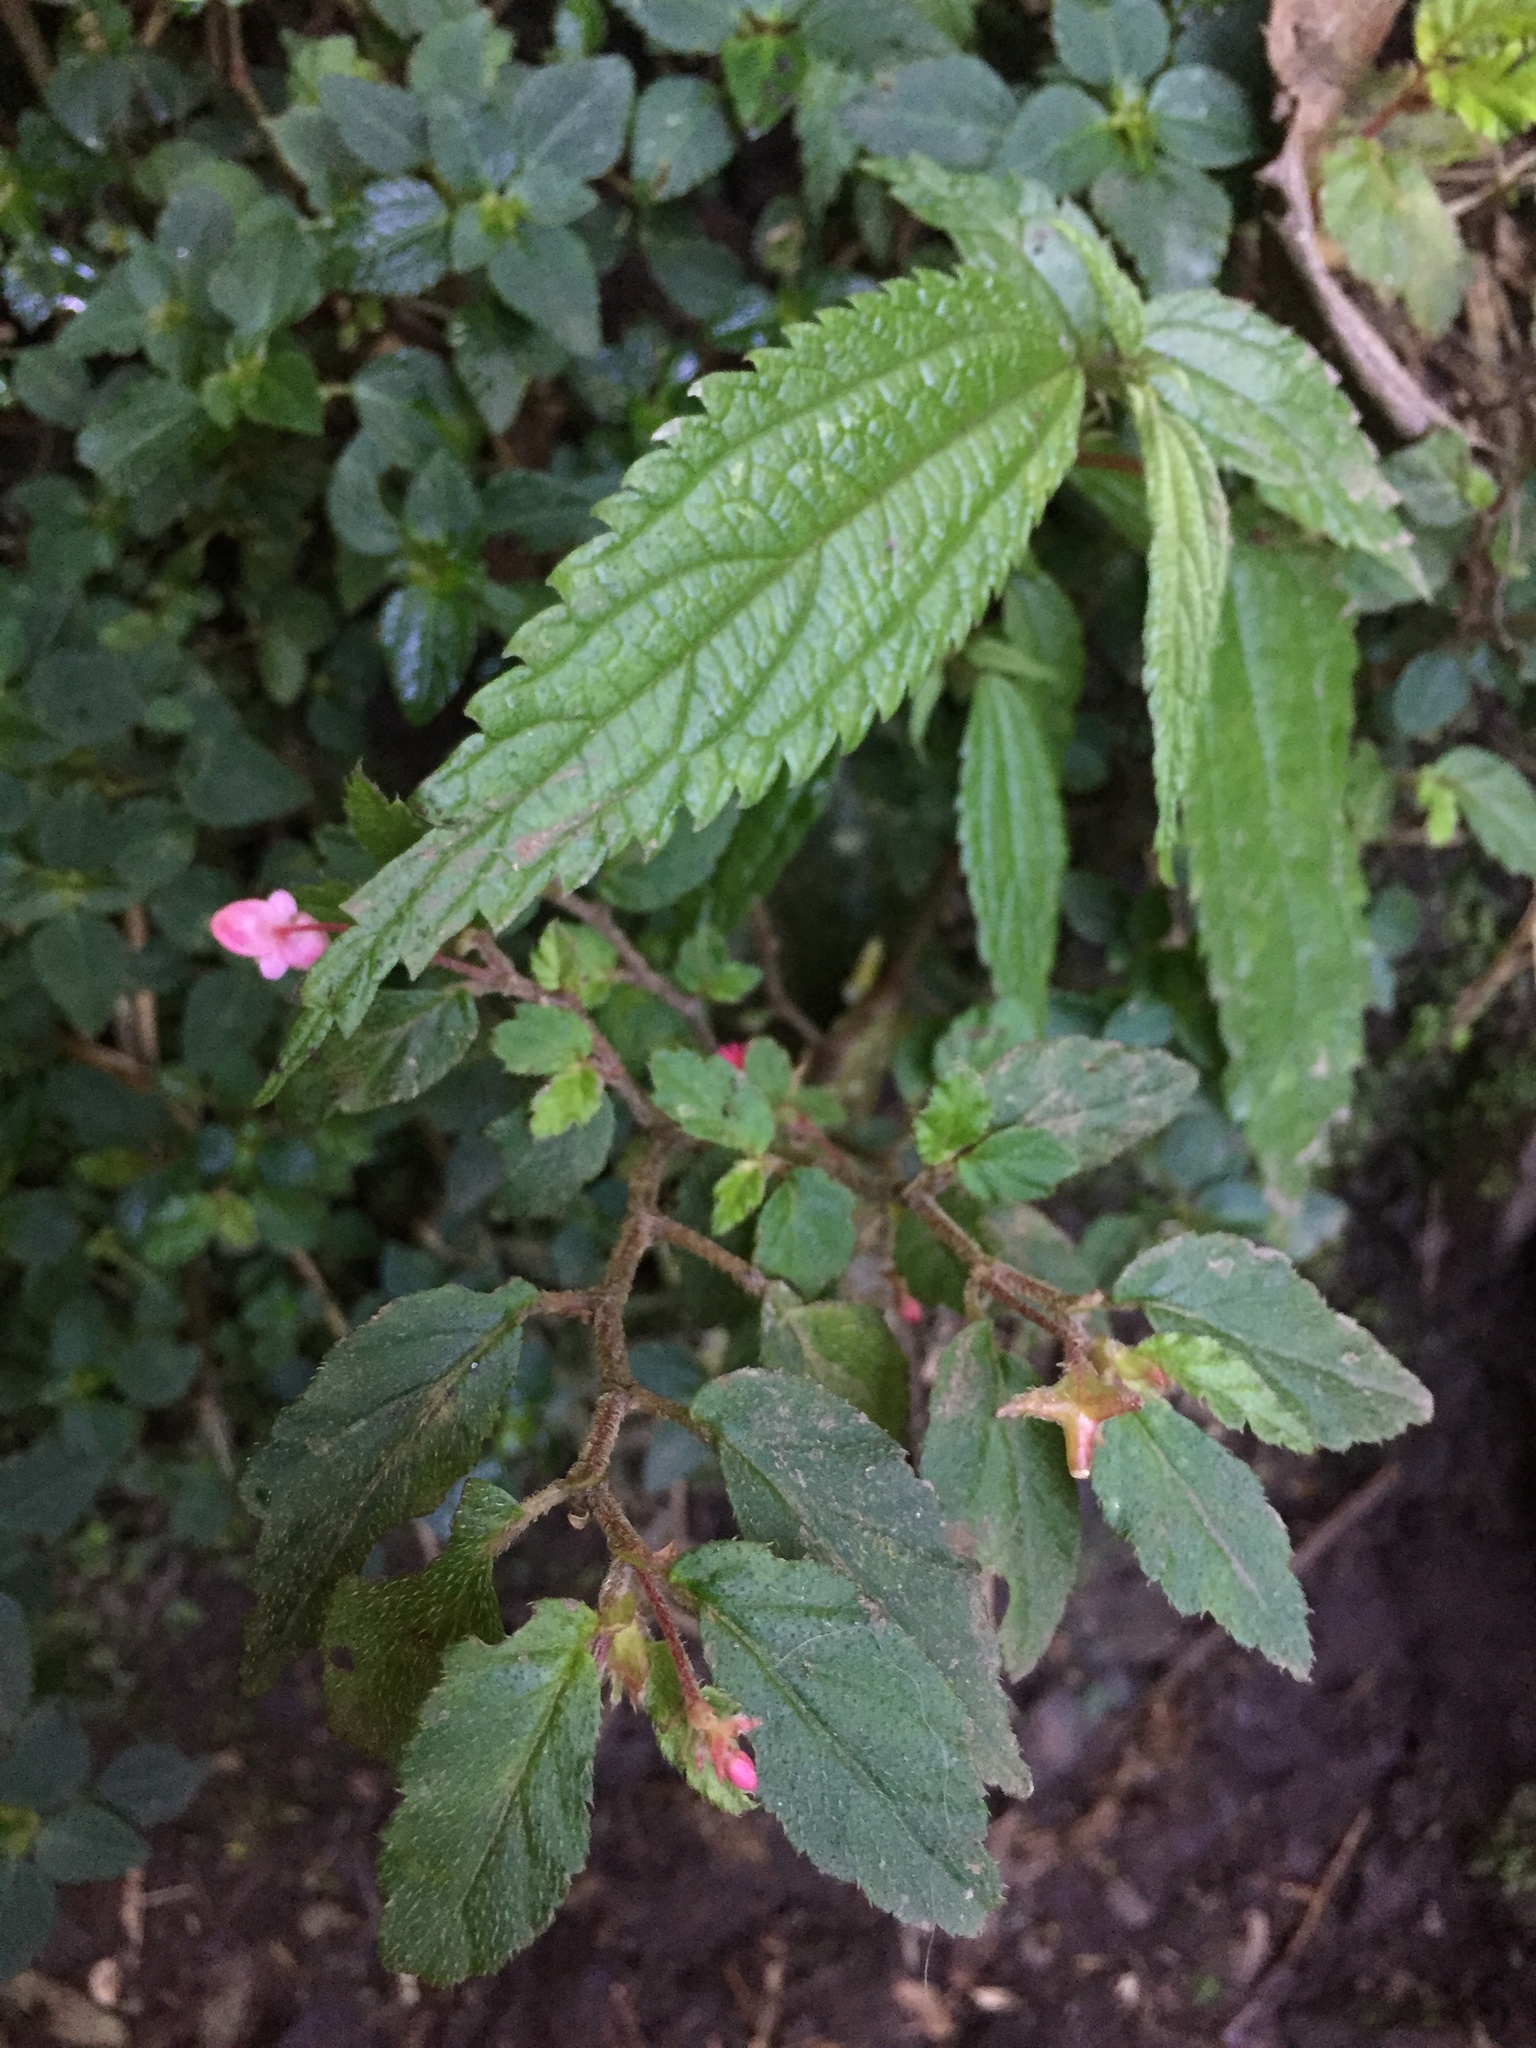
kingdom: Plantae
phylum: Tracheophyta
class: Magnoliopsida
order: Cucurbitales
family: Begoniaceae
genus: Begonia
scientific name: Begonia urticae
